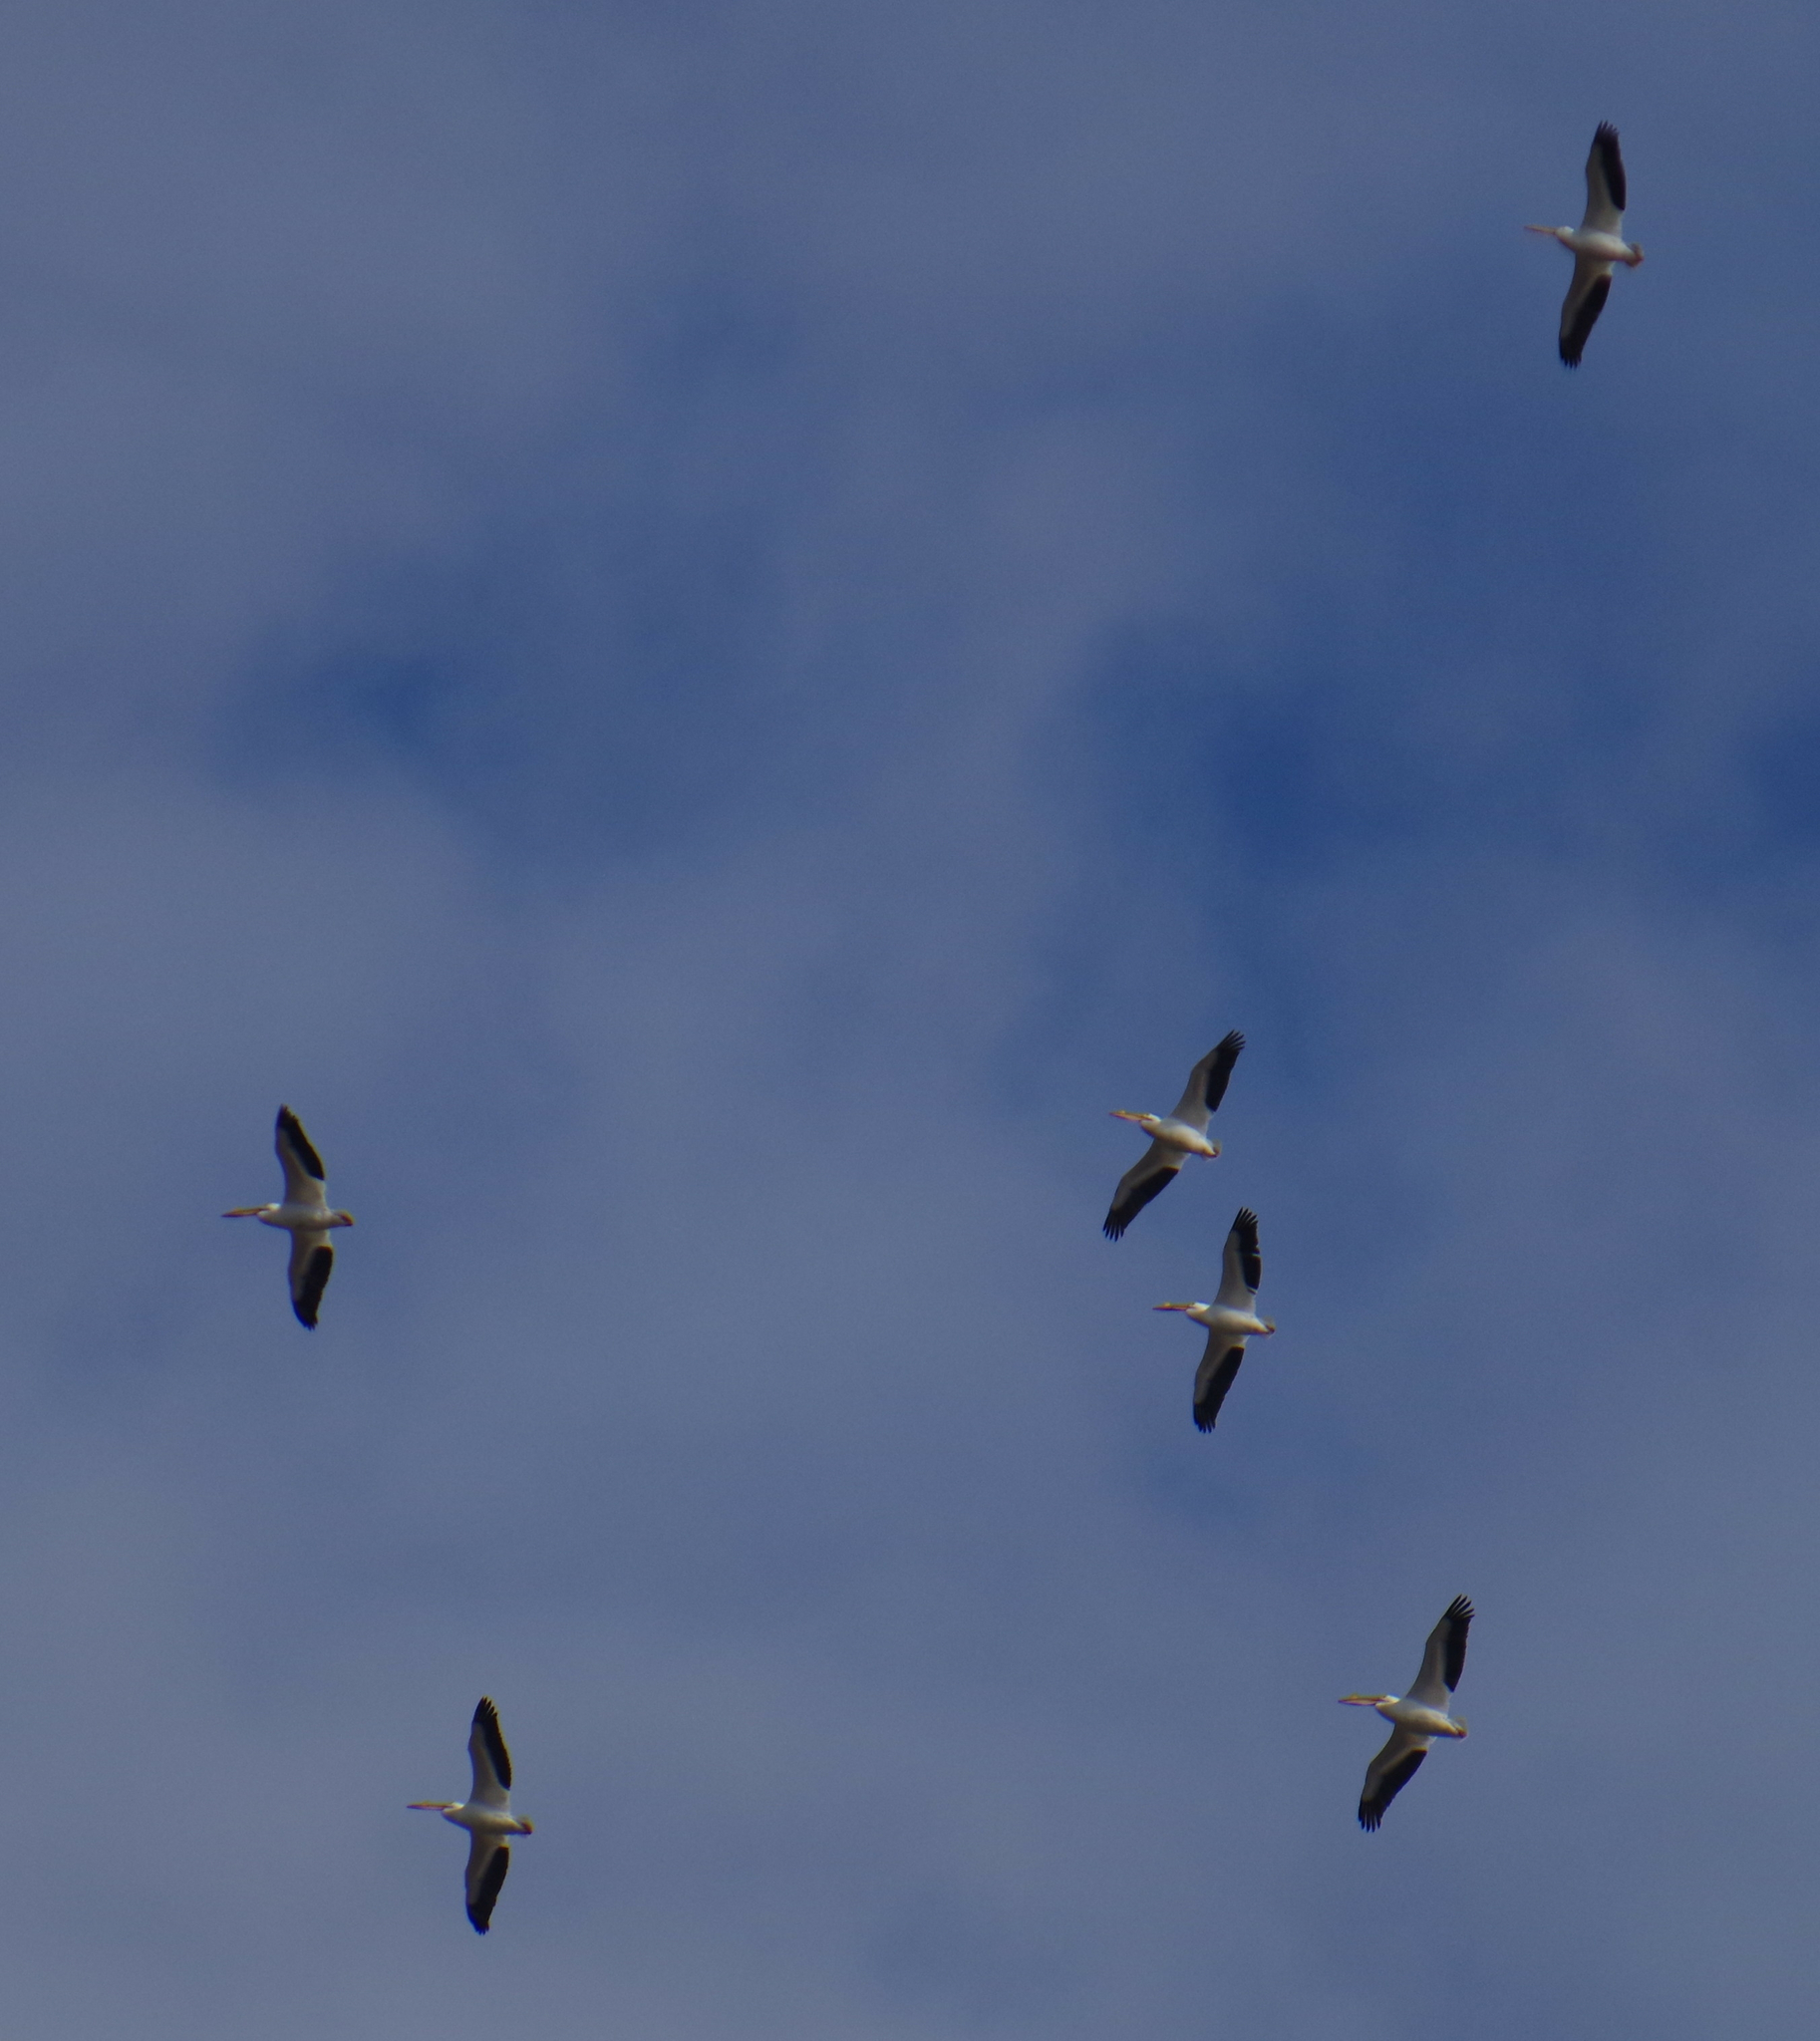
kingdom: Animalia
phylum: Chordata
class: Aves
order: Pelecaniformes
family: Pelecanidae
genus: Pelecanus
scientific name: Pelecanus erythrorhynchos
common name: American white pelican
